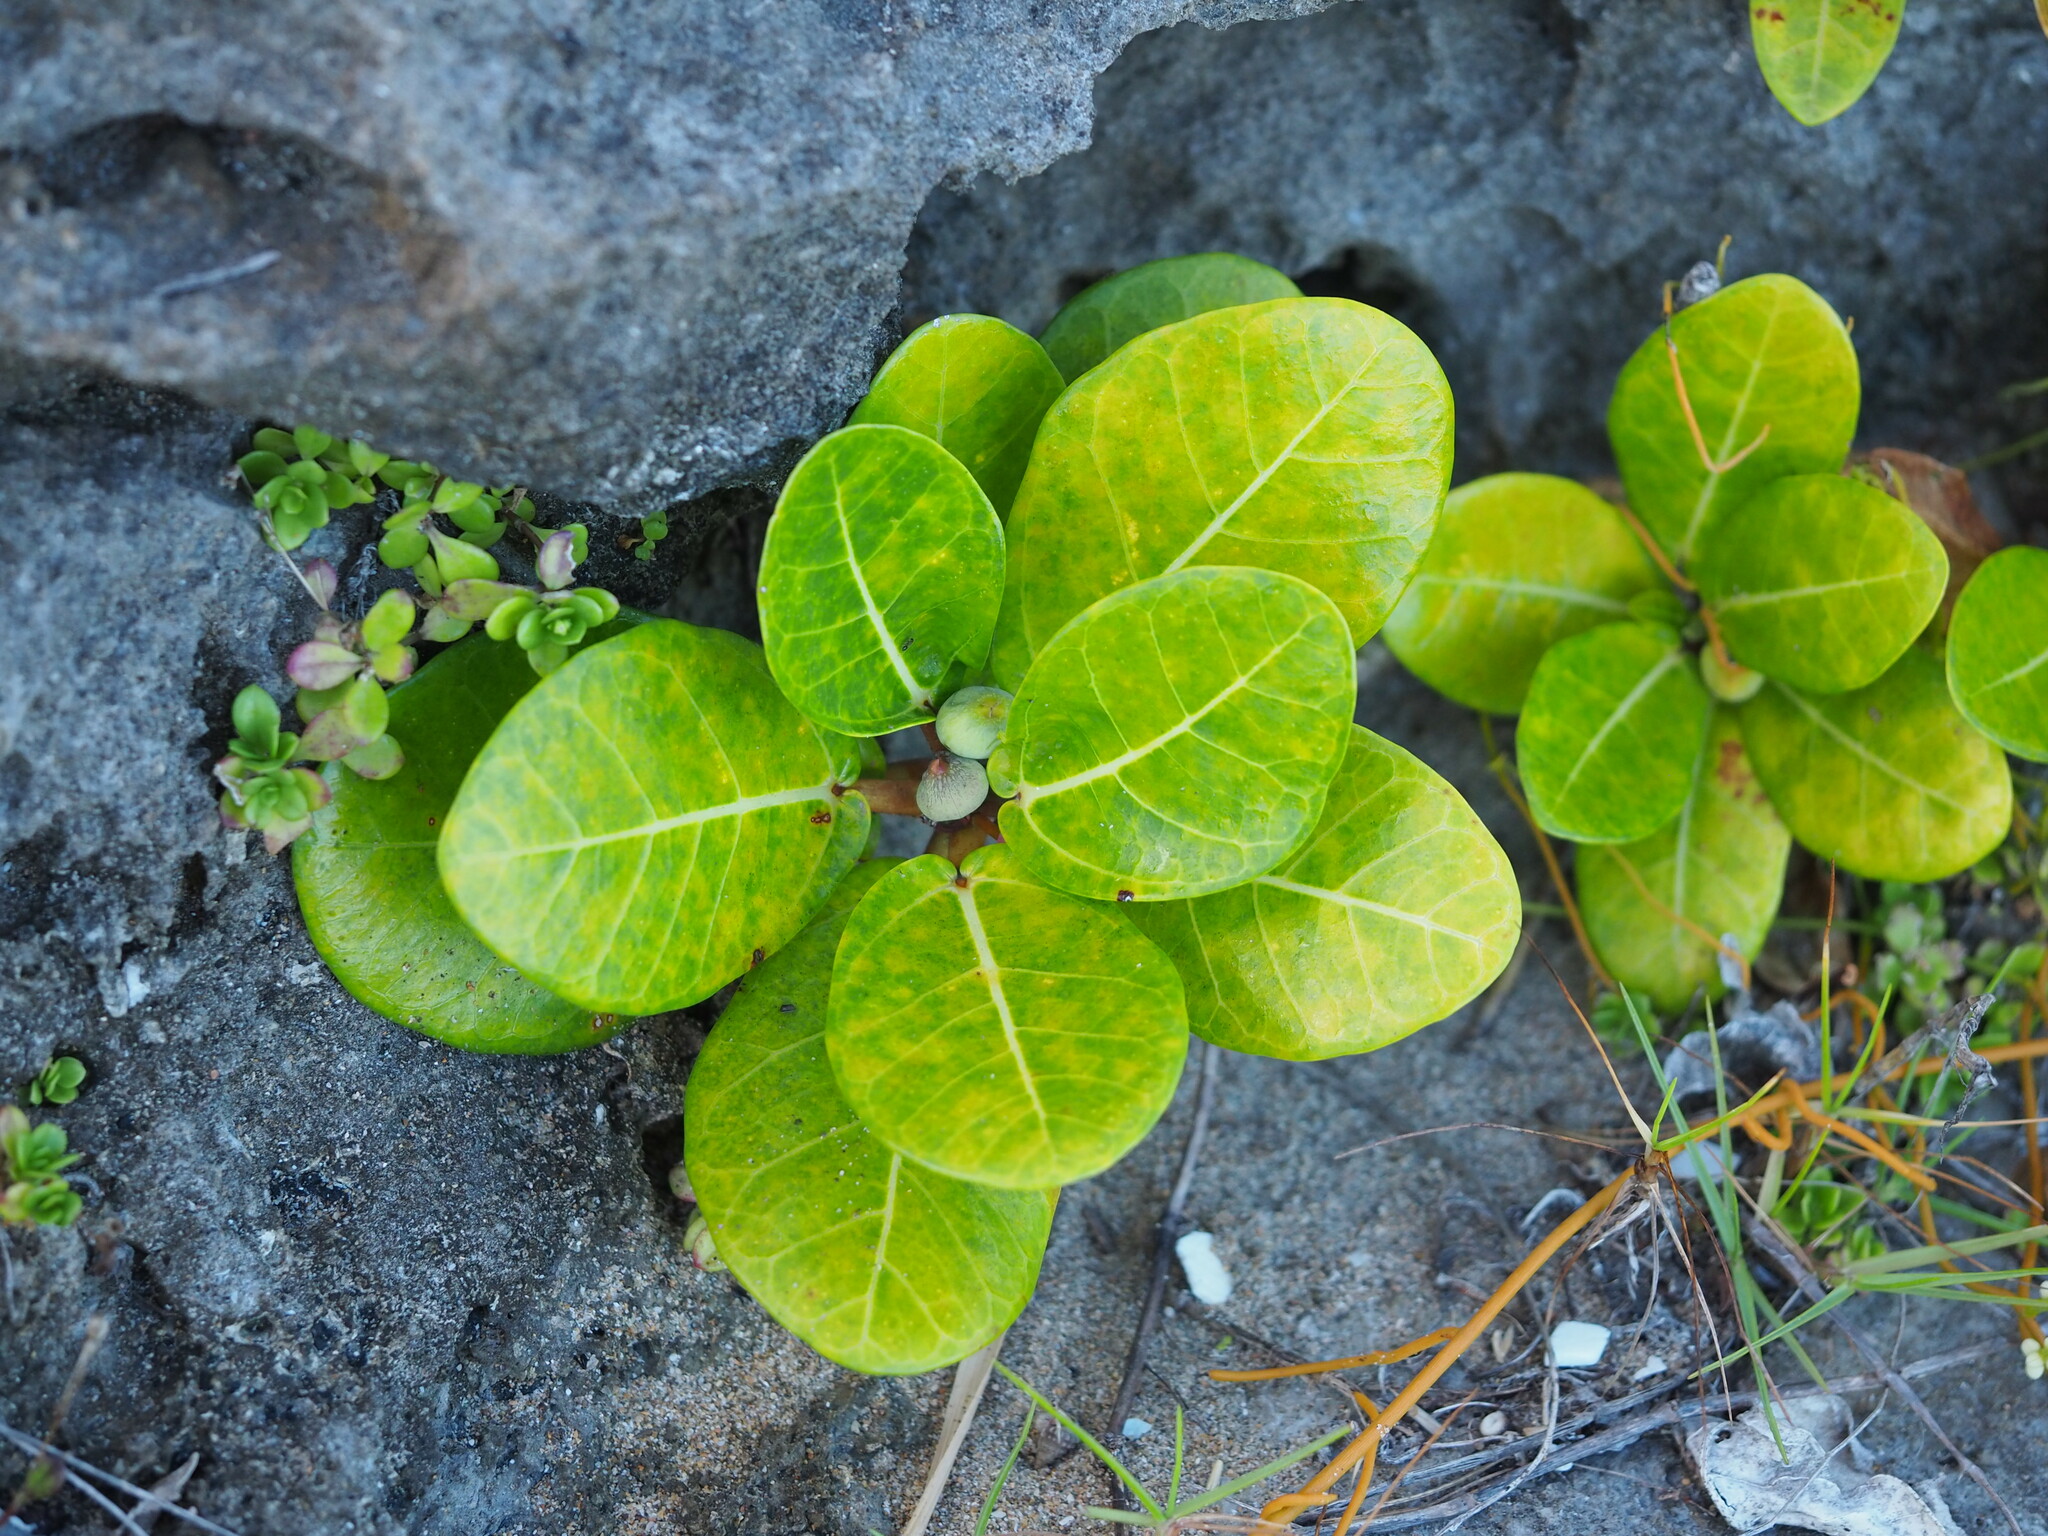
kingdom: Plantae
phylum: Tracheophyta
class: Magnoliopsida
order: Rosales
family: Moraceae
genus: Ficus
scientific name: Ficus pedunculosa
